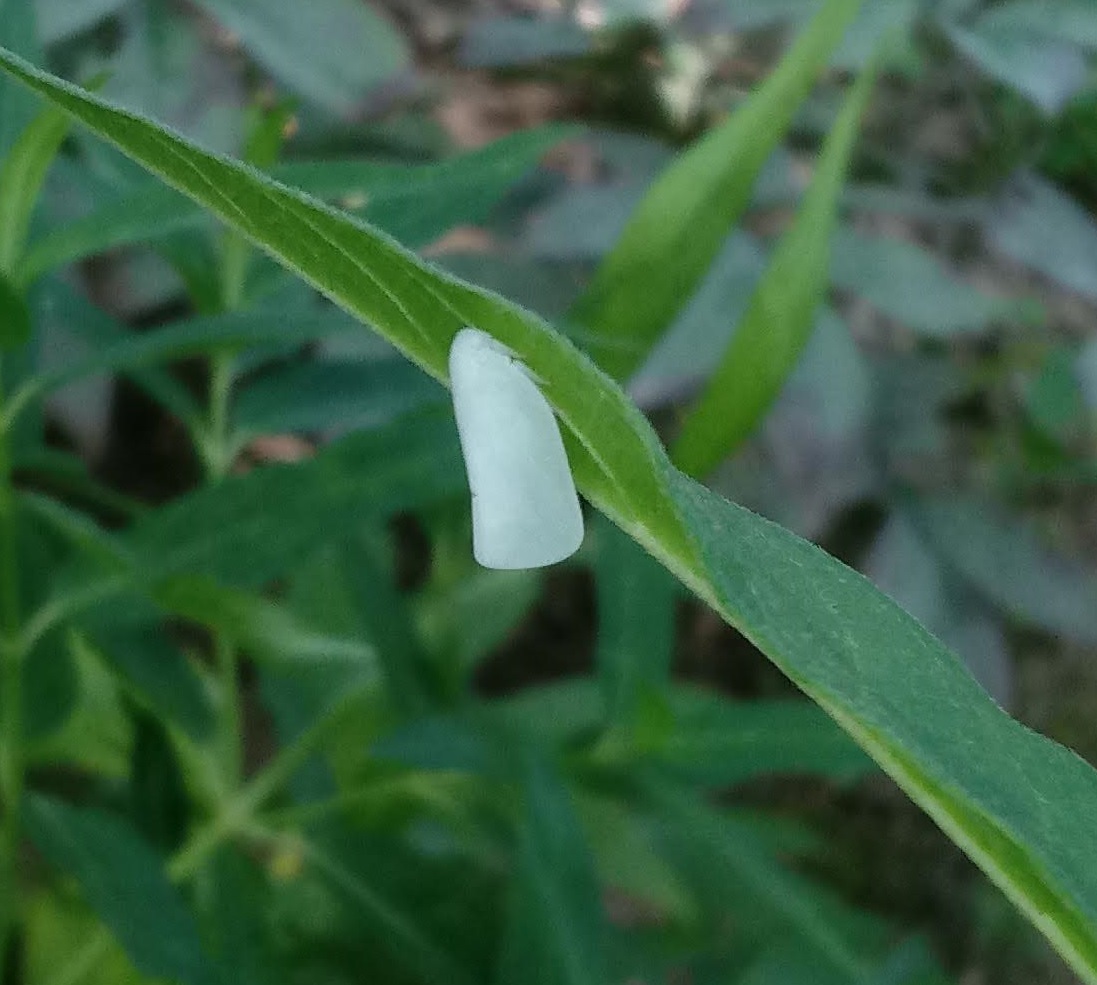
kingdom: Animalia
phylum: Arthropoda
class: Insecta
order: Hemiptera
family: Flatidae
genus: Flatormenis
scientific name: Flatormenis proxima
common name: Northern flatid planthopper
